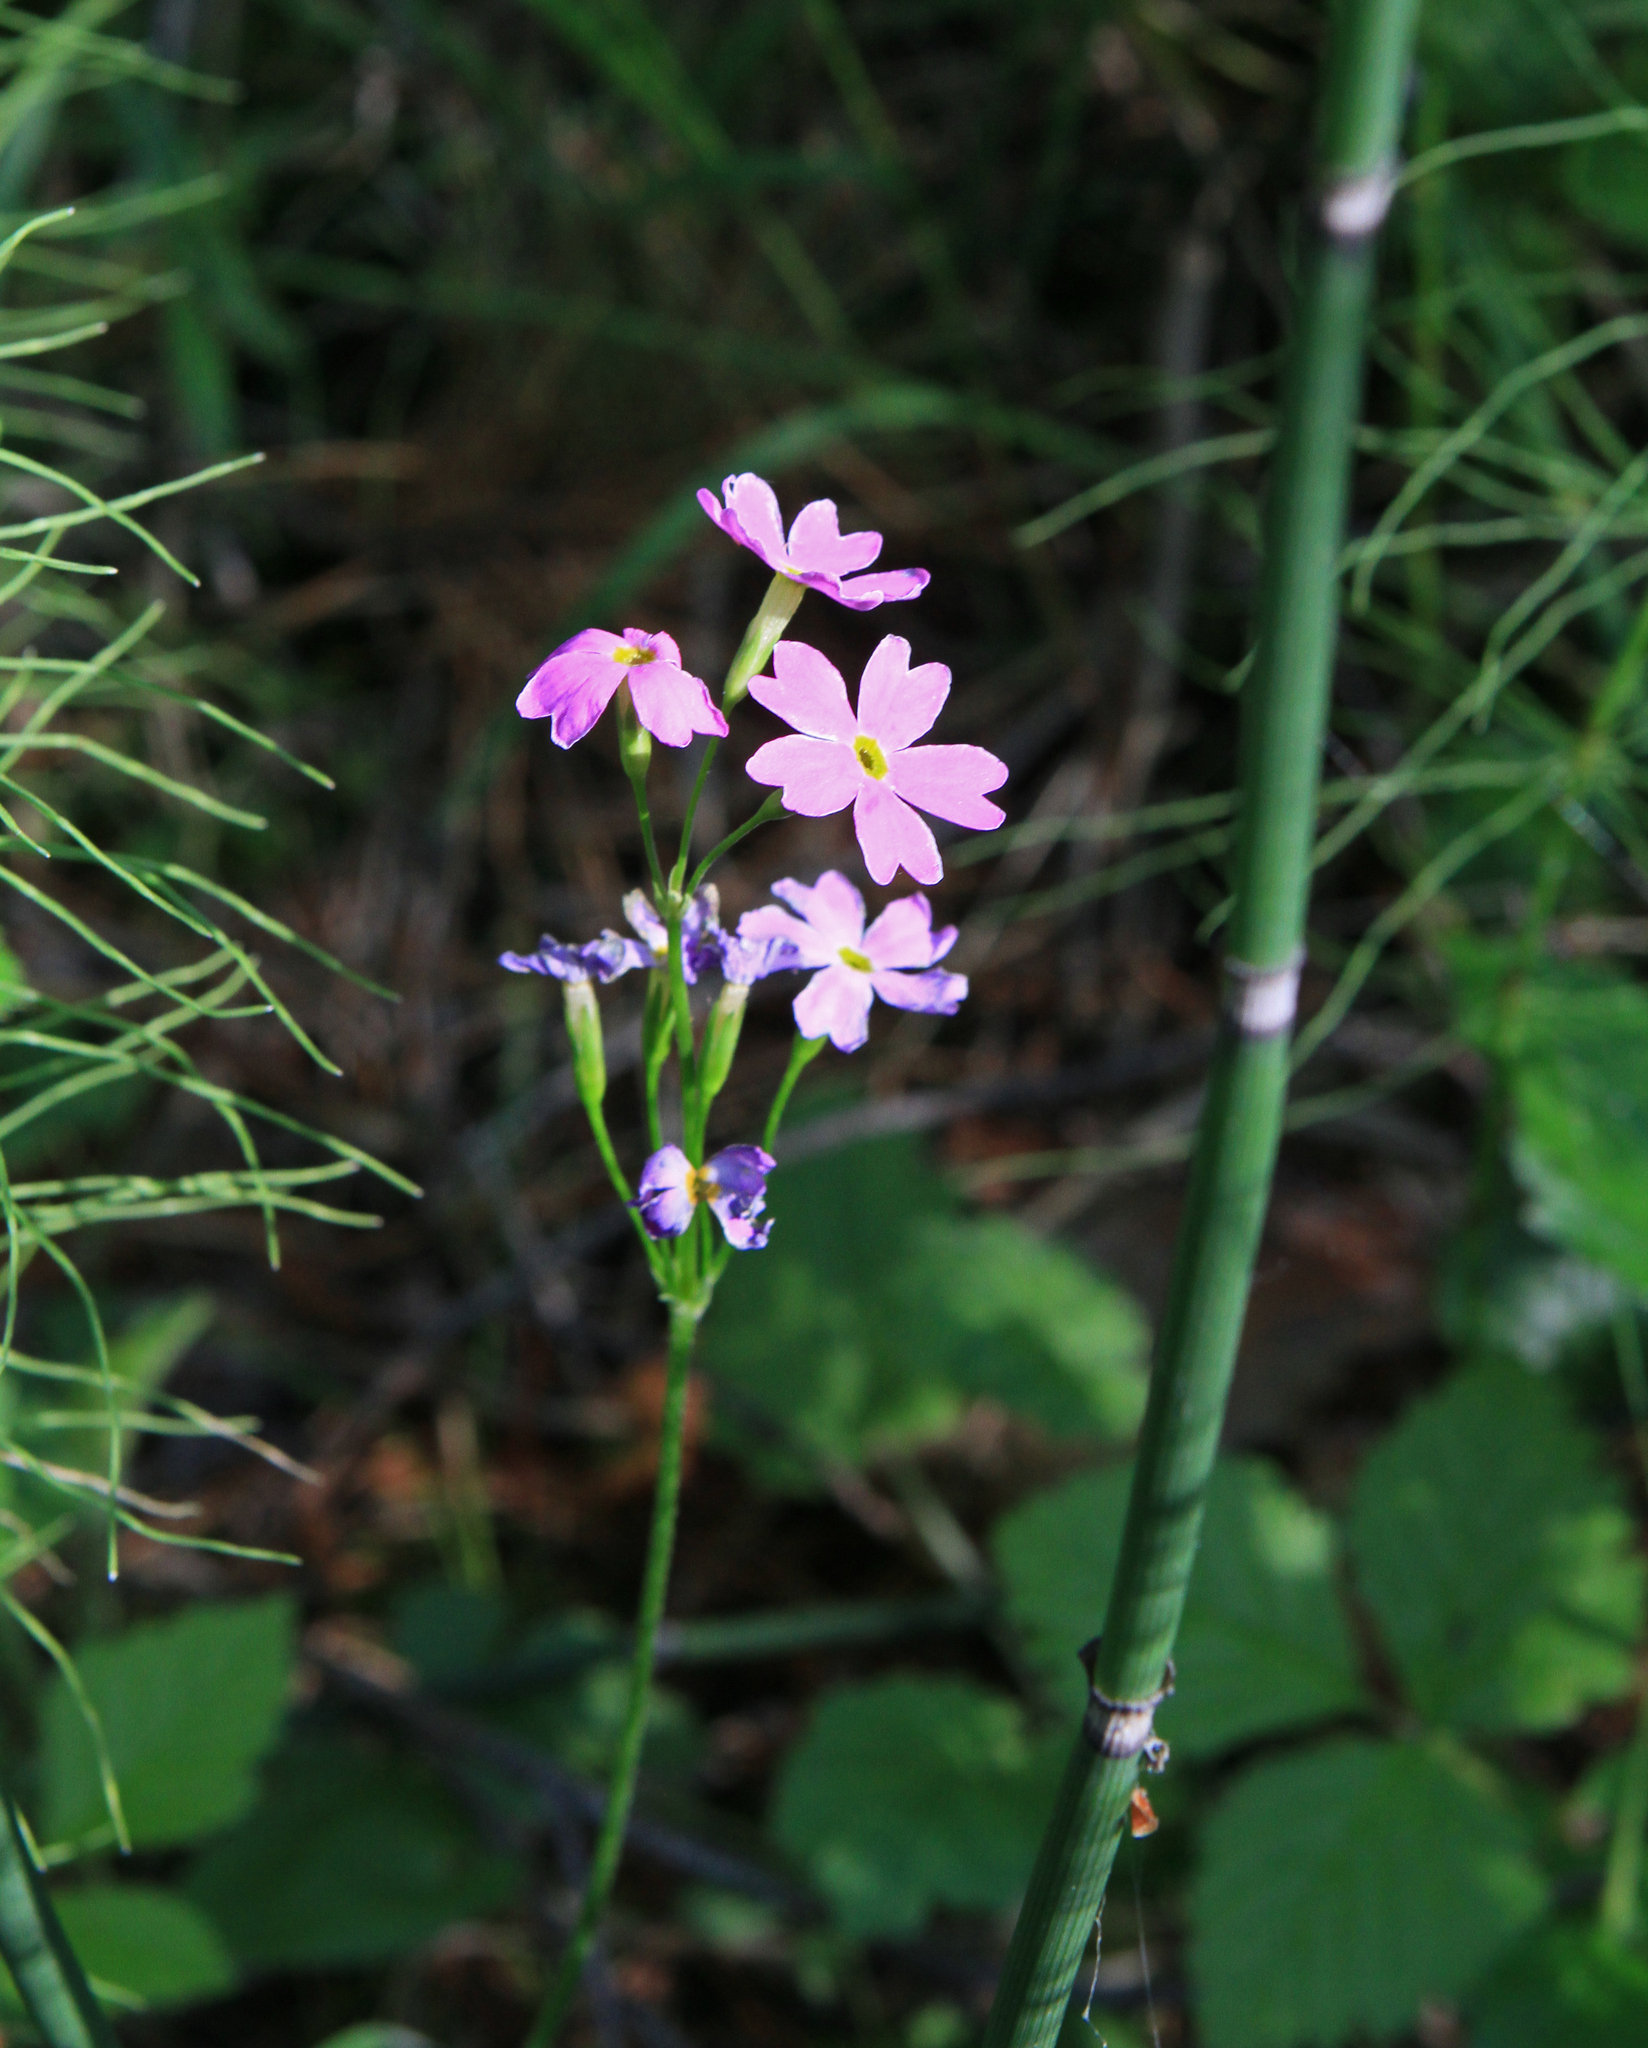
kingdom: Plantae
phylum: Tracheophyta
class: Magnoliopsida
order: Ericales
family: Primulaceae
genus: Primula
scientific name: Primula cortusoides
